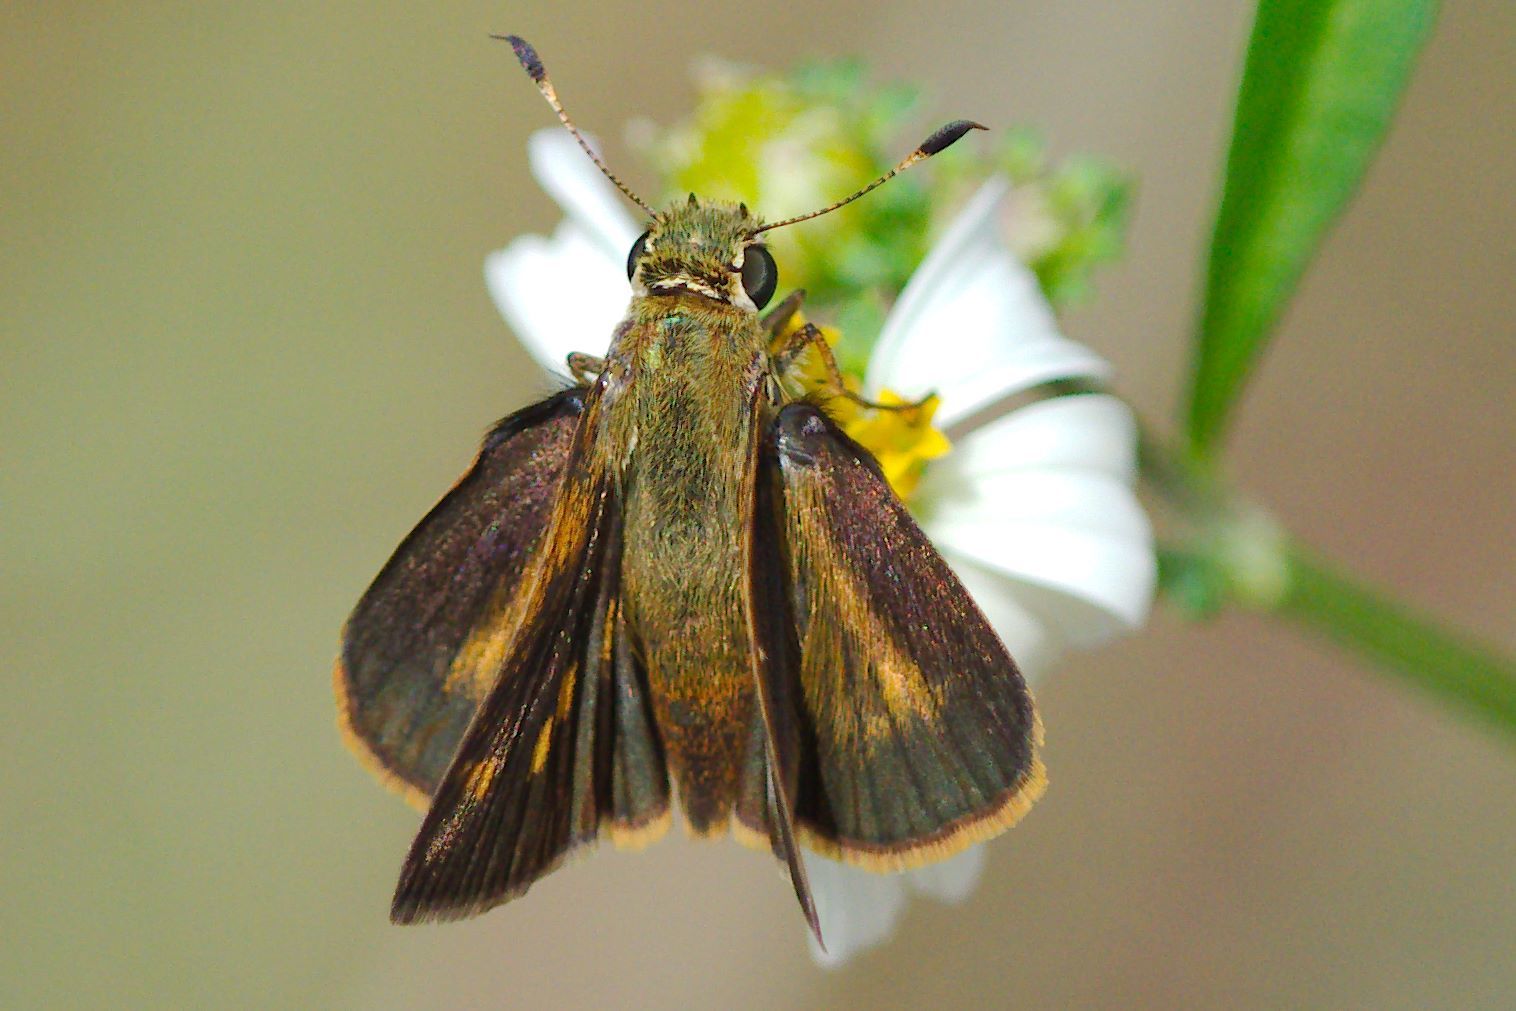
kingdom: Animalia
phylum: Arthropoda
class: Insecta
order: Lepidoptera
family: Hesperiidae
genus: Polites
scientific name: Polites otho
